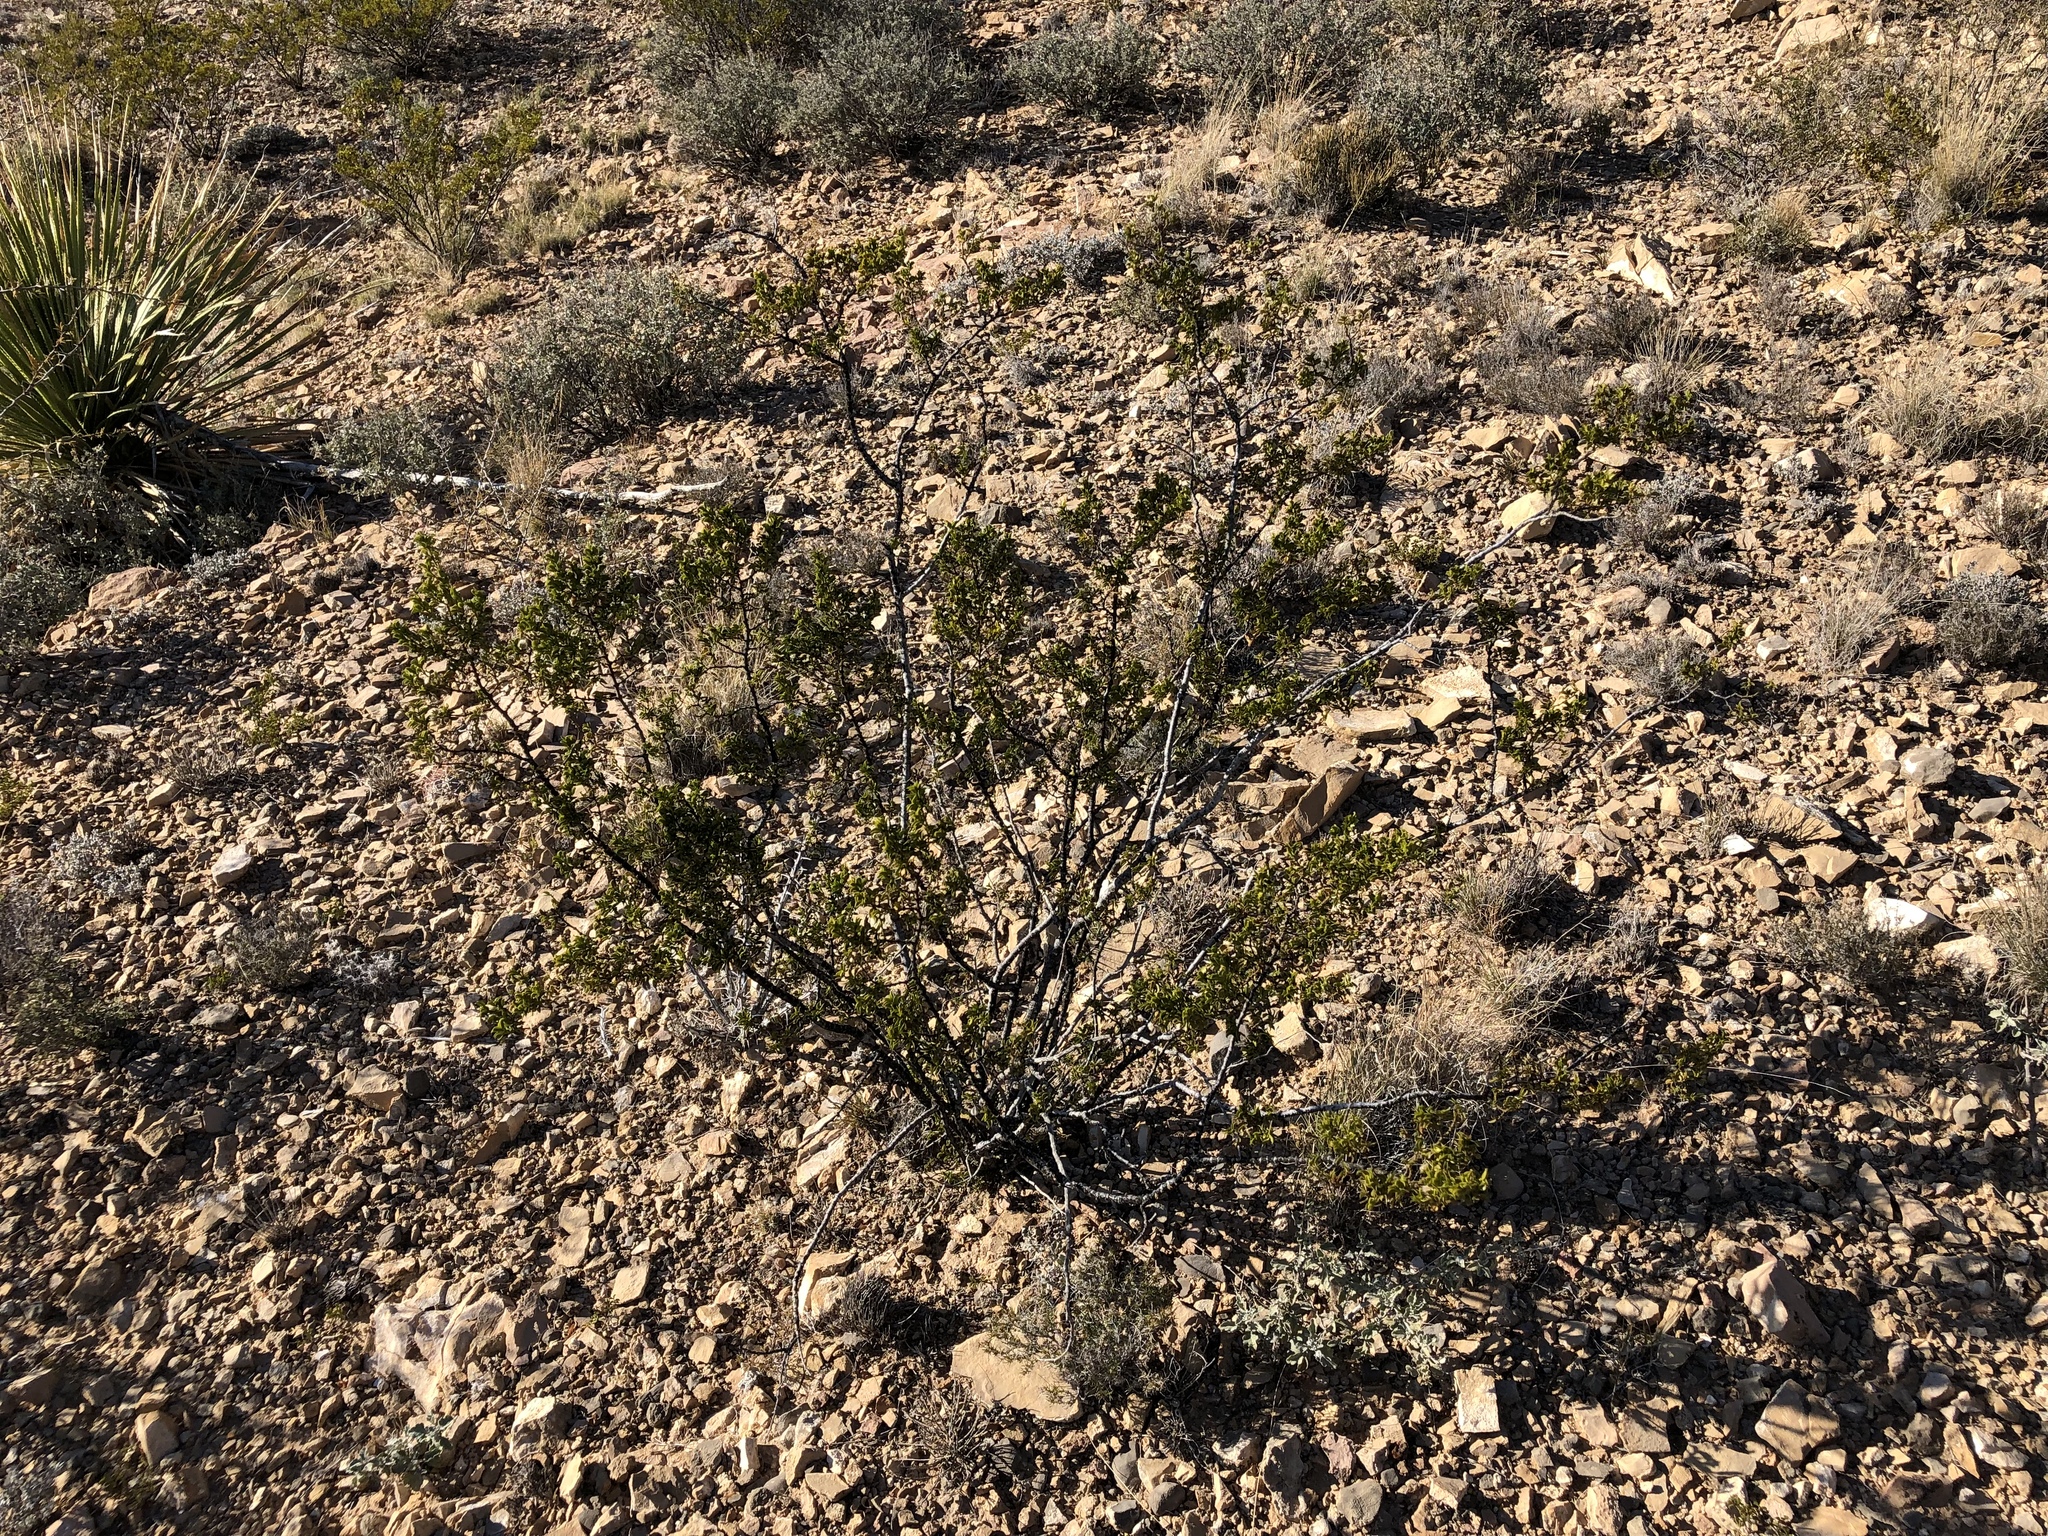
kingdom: Plantae
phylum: Tracheophyta
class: Magnoliopsida
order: Zygophyllales
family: Zygophyllaceae
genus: Larrea
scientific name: Larrea tridentata
